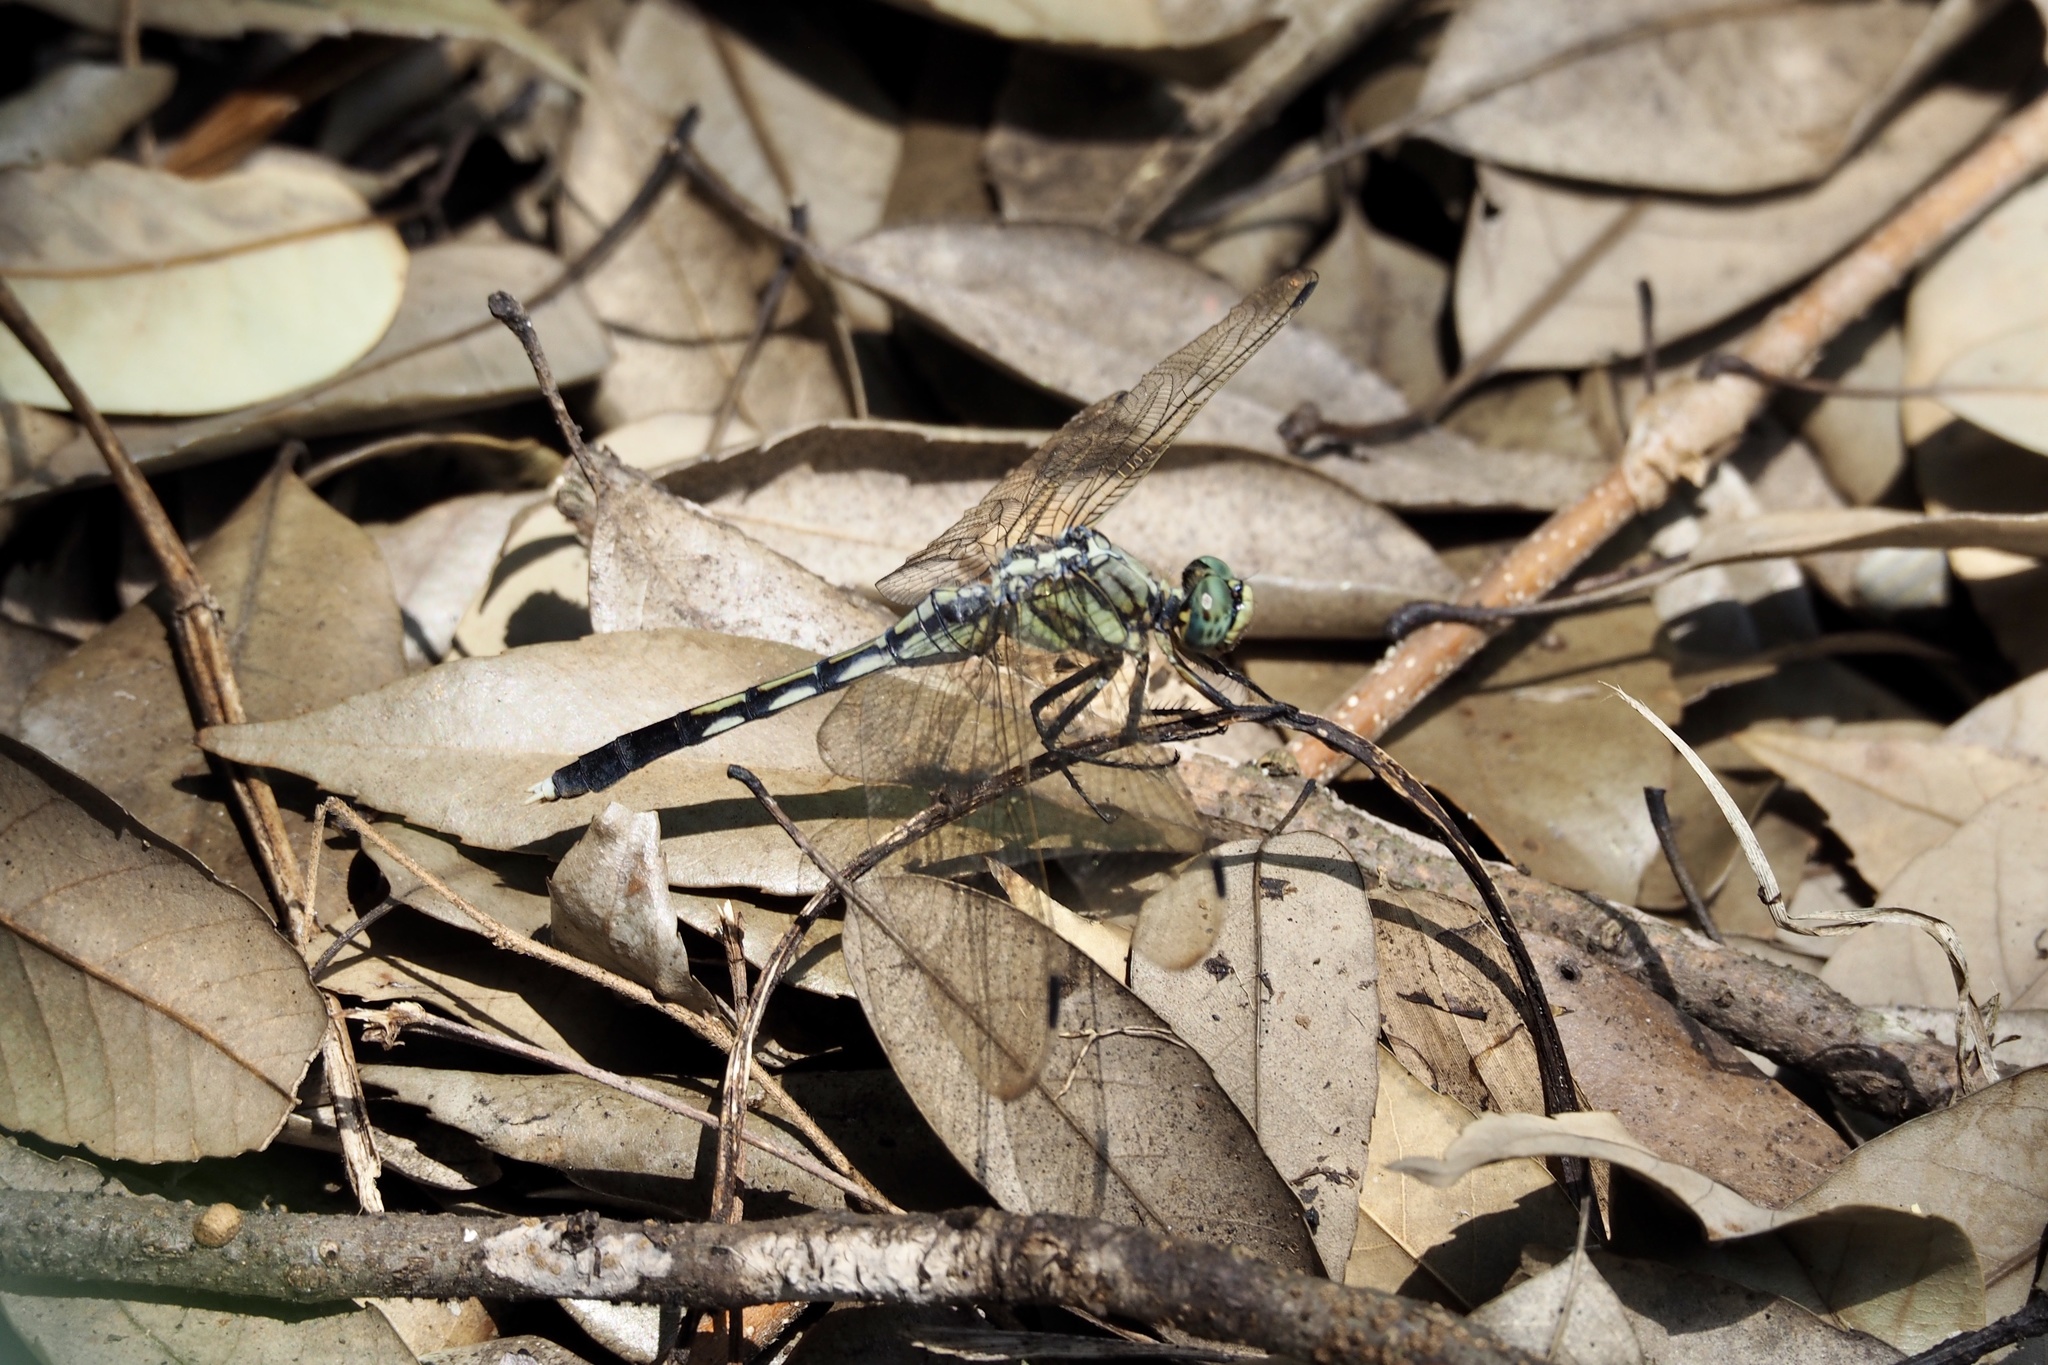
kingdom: Animalia
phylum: Arthropoda
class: Insecta
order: Odonata
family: Libellulidae
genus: Orthetrum
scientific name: Orthetrum albistylum
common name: White-tailed skimmer
